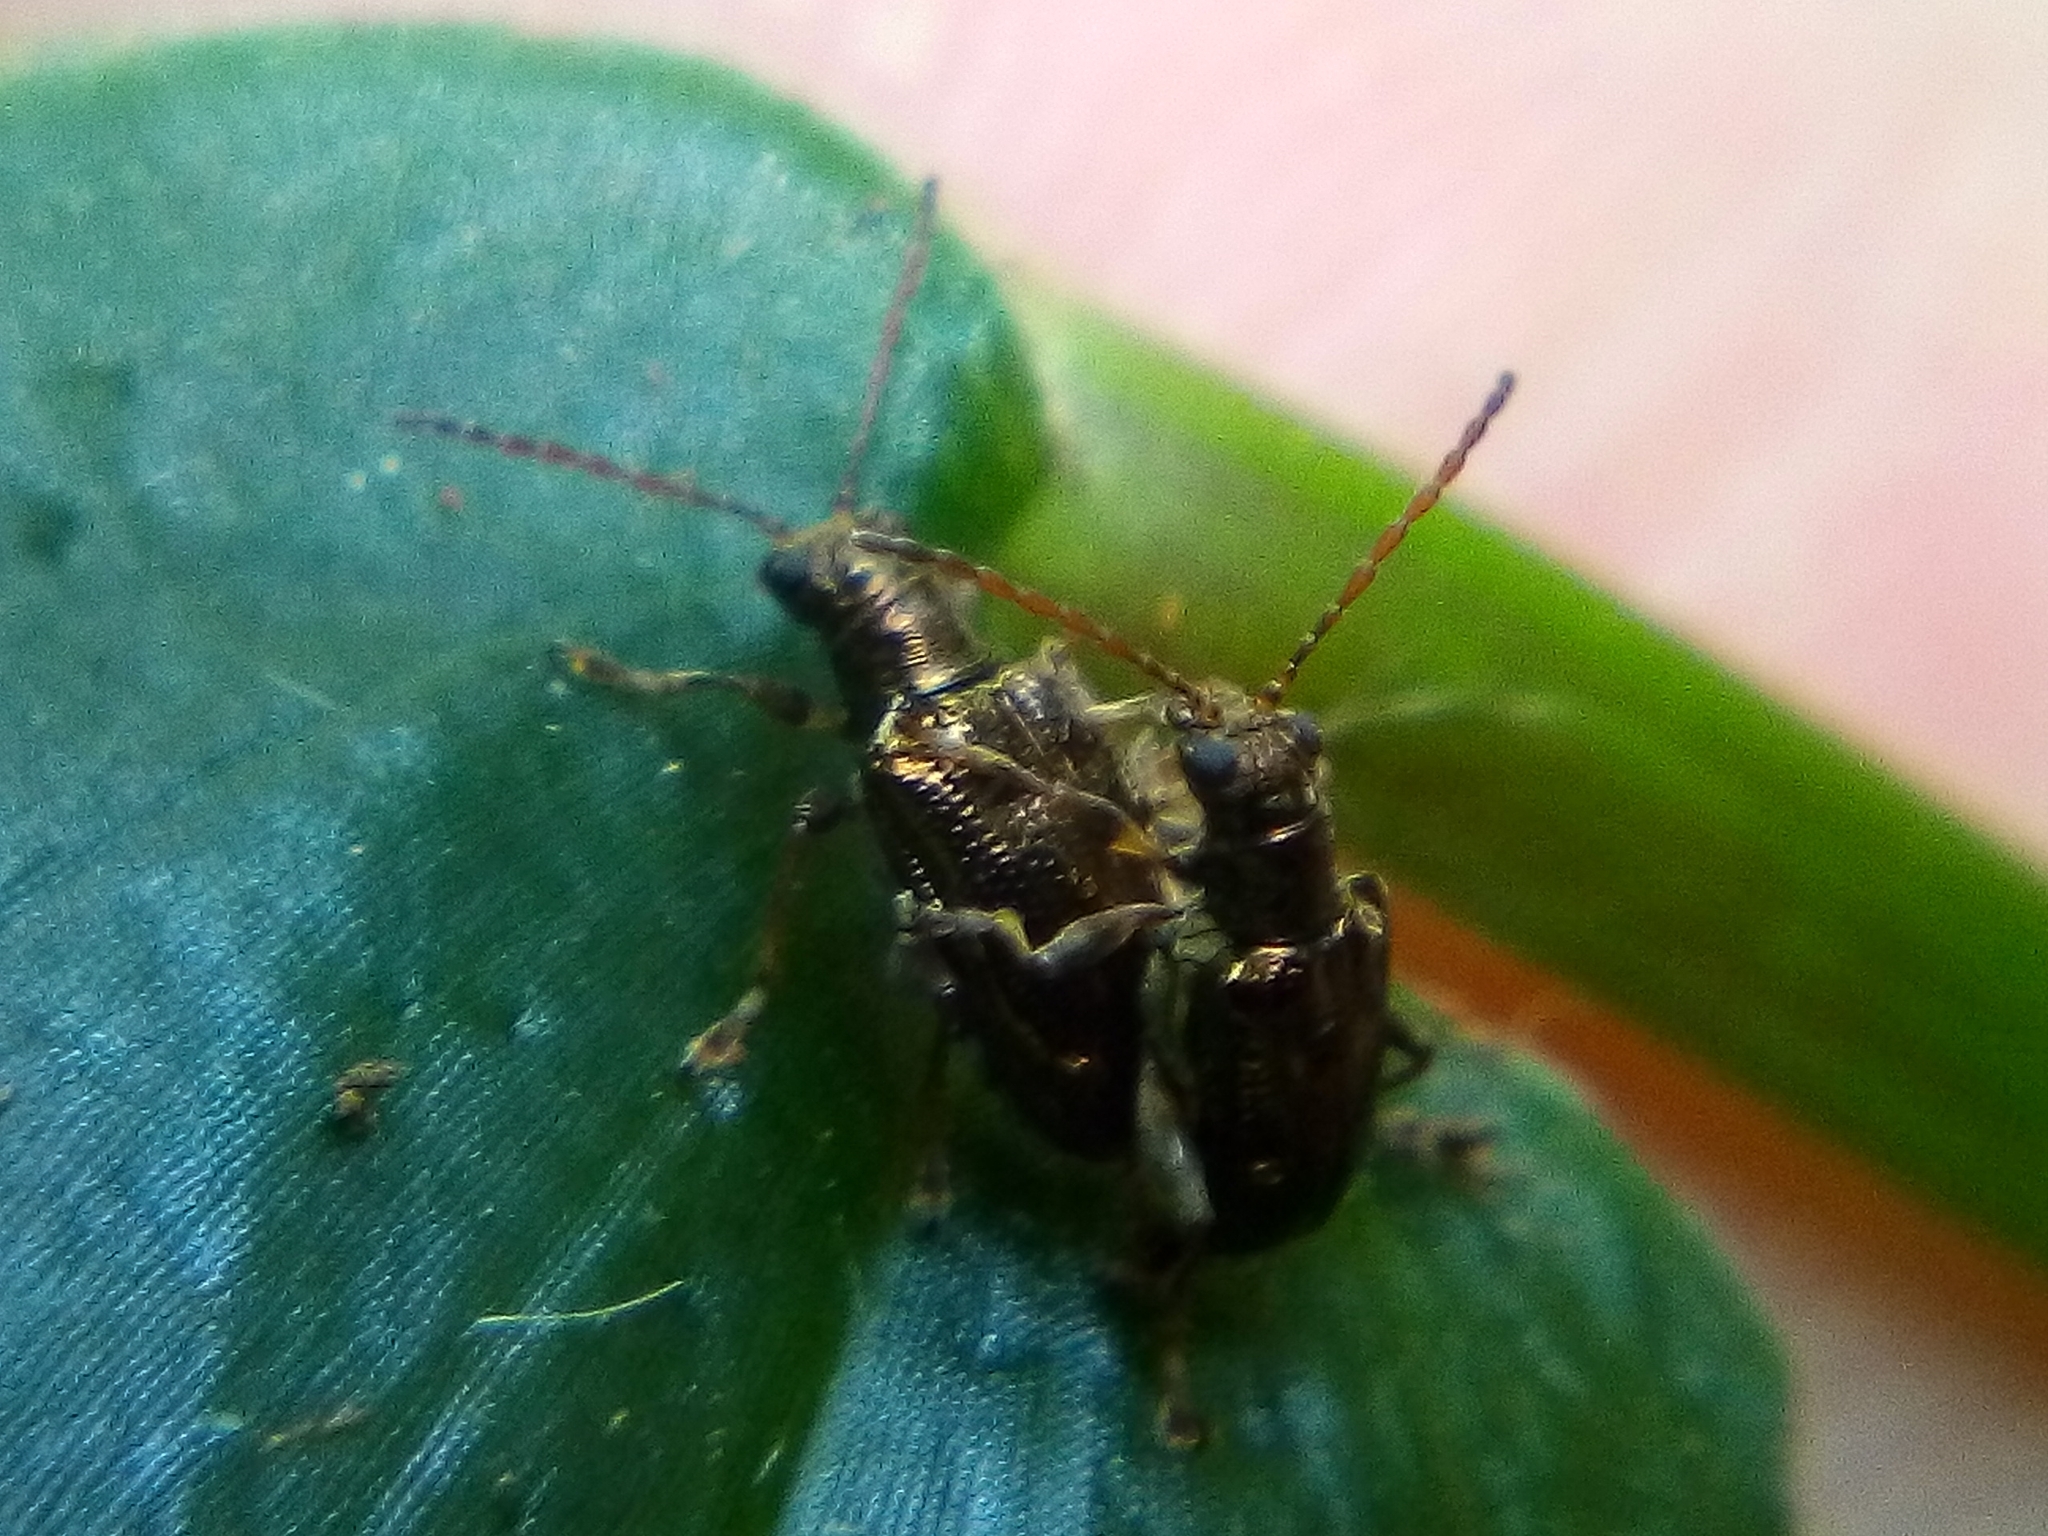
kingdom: Animalia
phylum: Arthropoda
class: Insecta
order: Coleoptera
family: Chrysomelidae
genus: Neolema
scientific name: Neolema ogloblini
